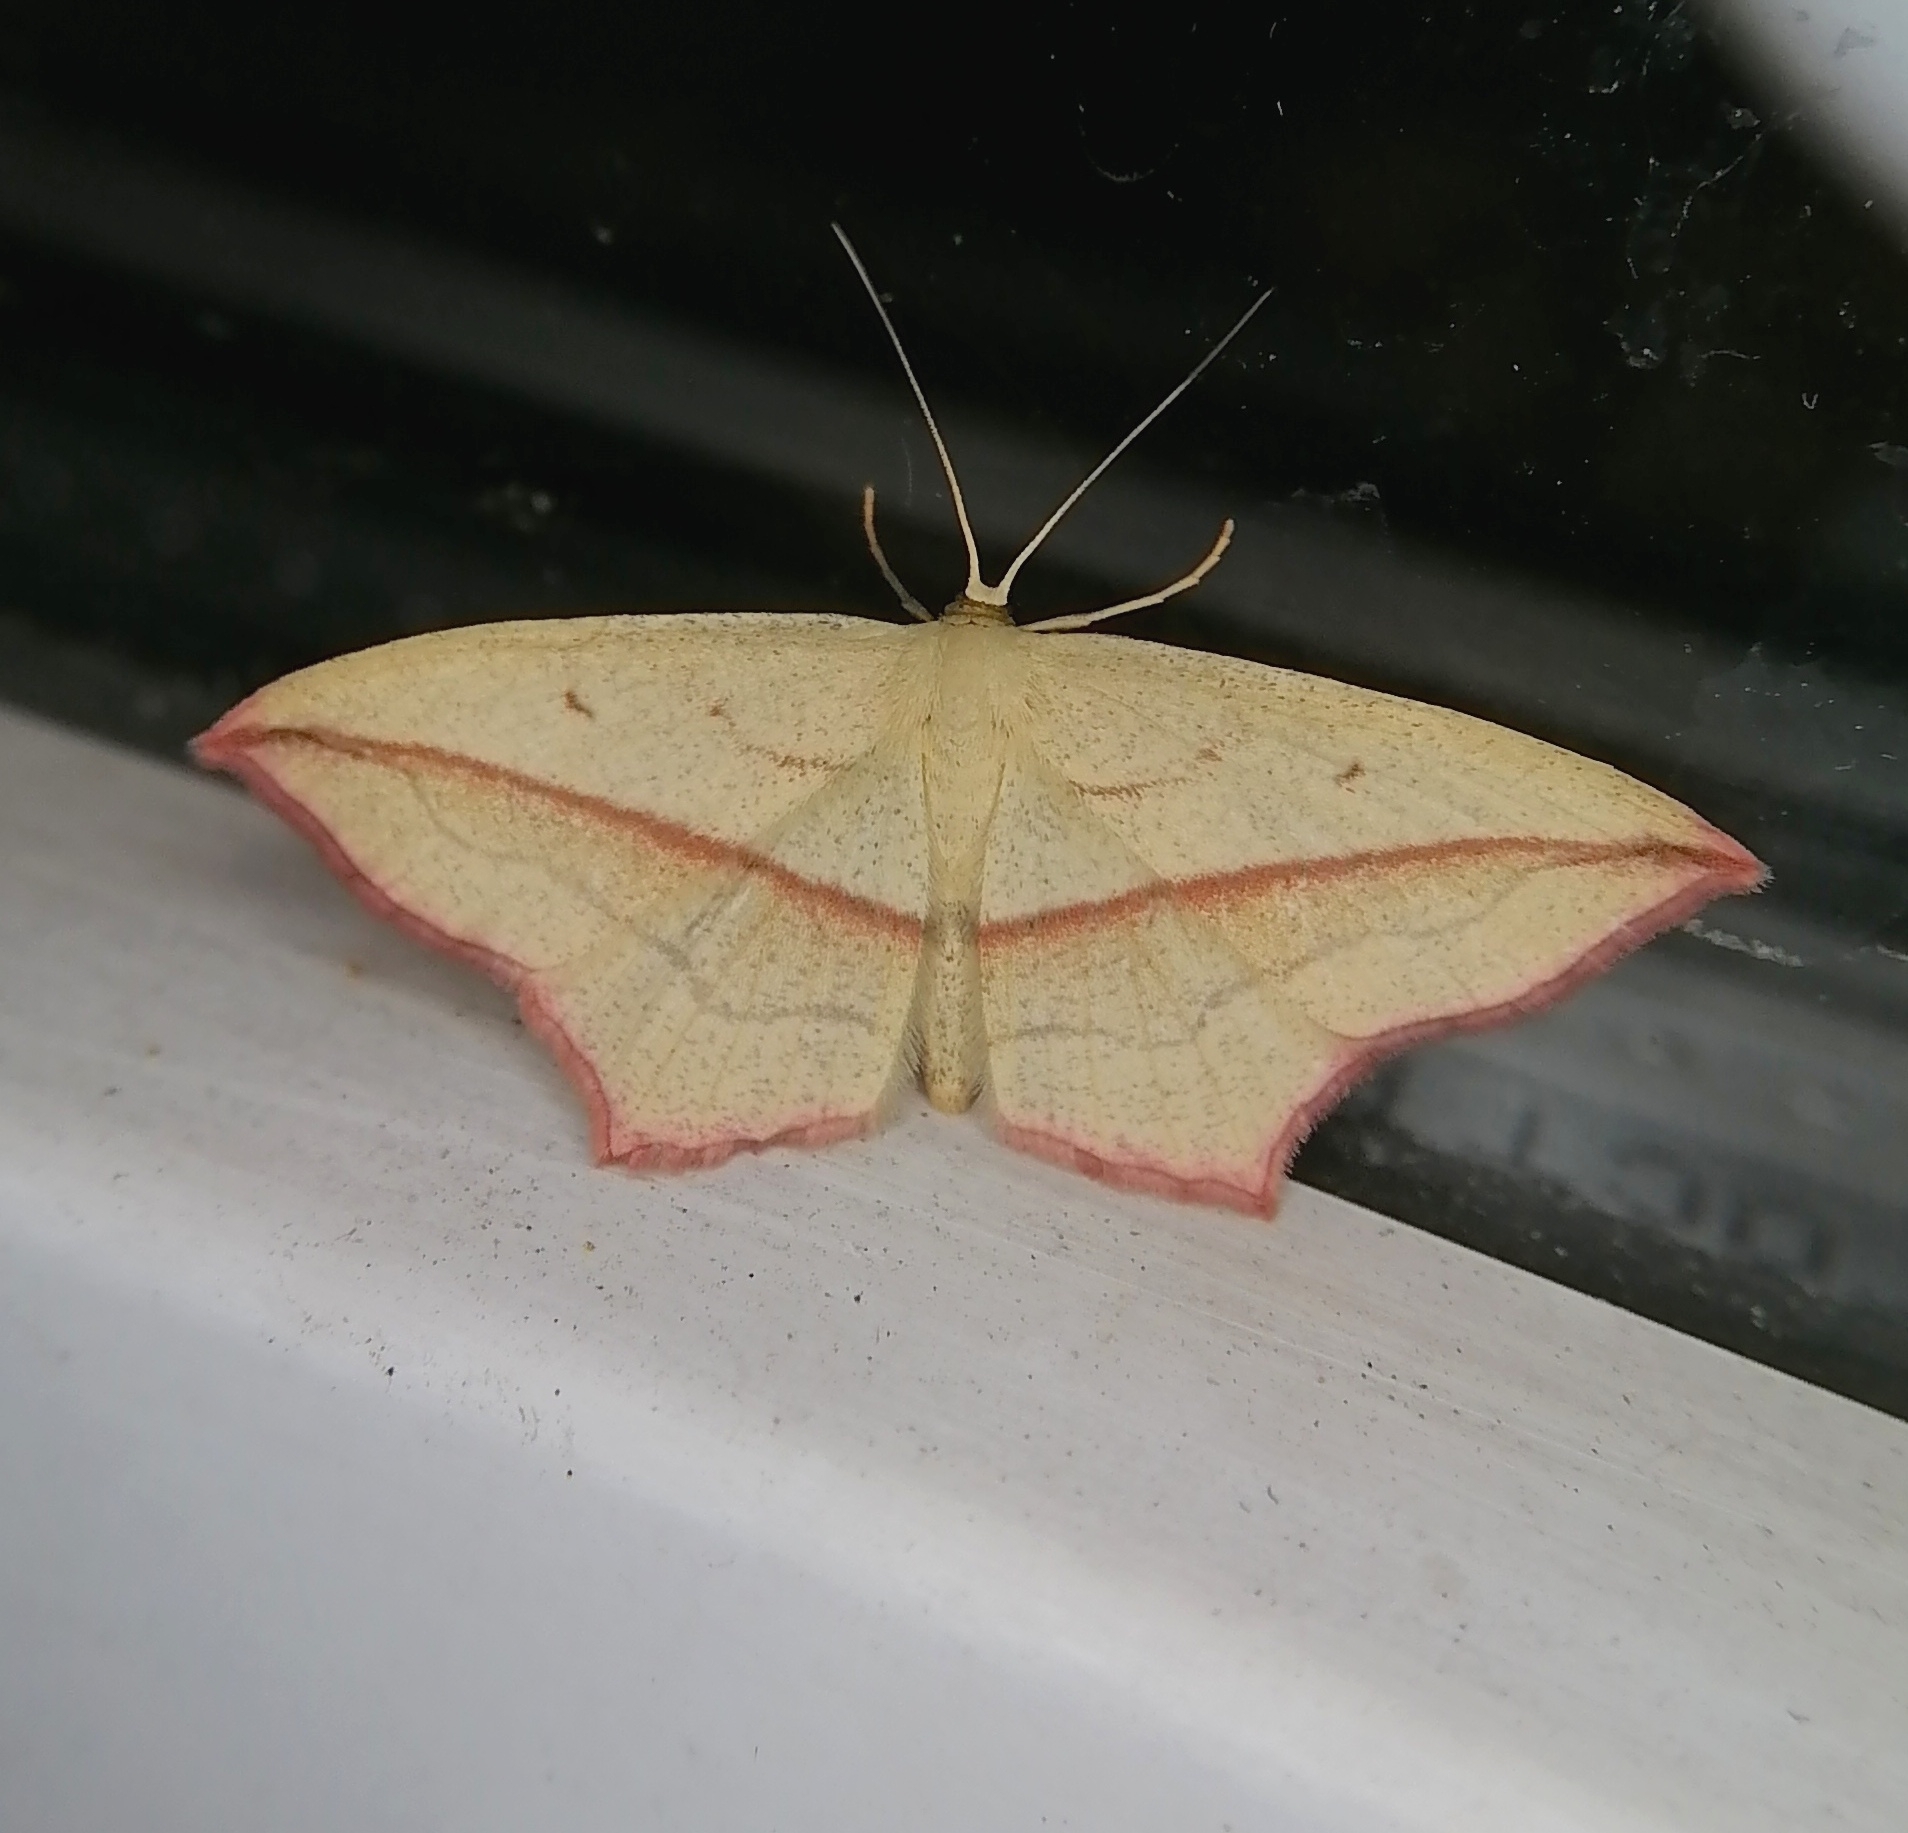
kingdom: Animalia
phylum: Arthropoda
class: Insecta
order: Lepidoptera
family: Geometridae
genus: Timandra
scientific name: Timandra comae
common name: Blood-vein
